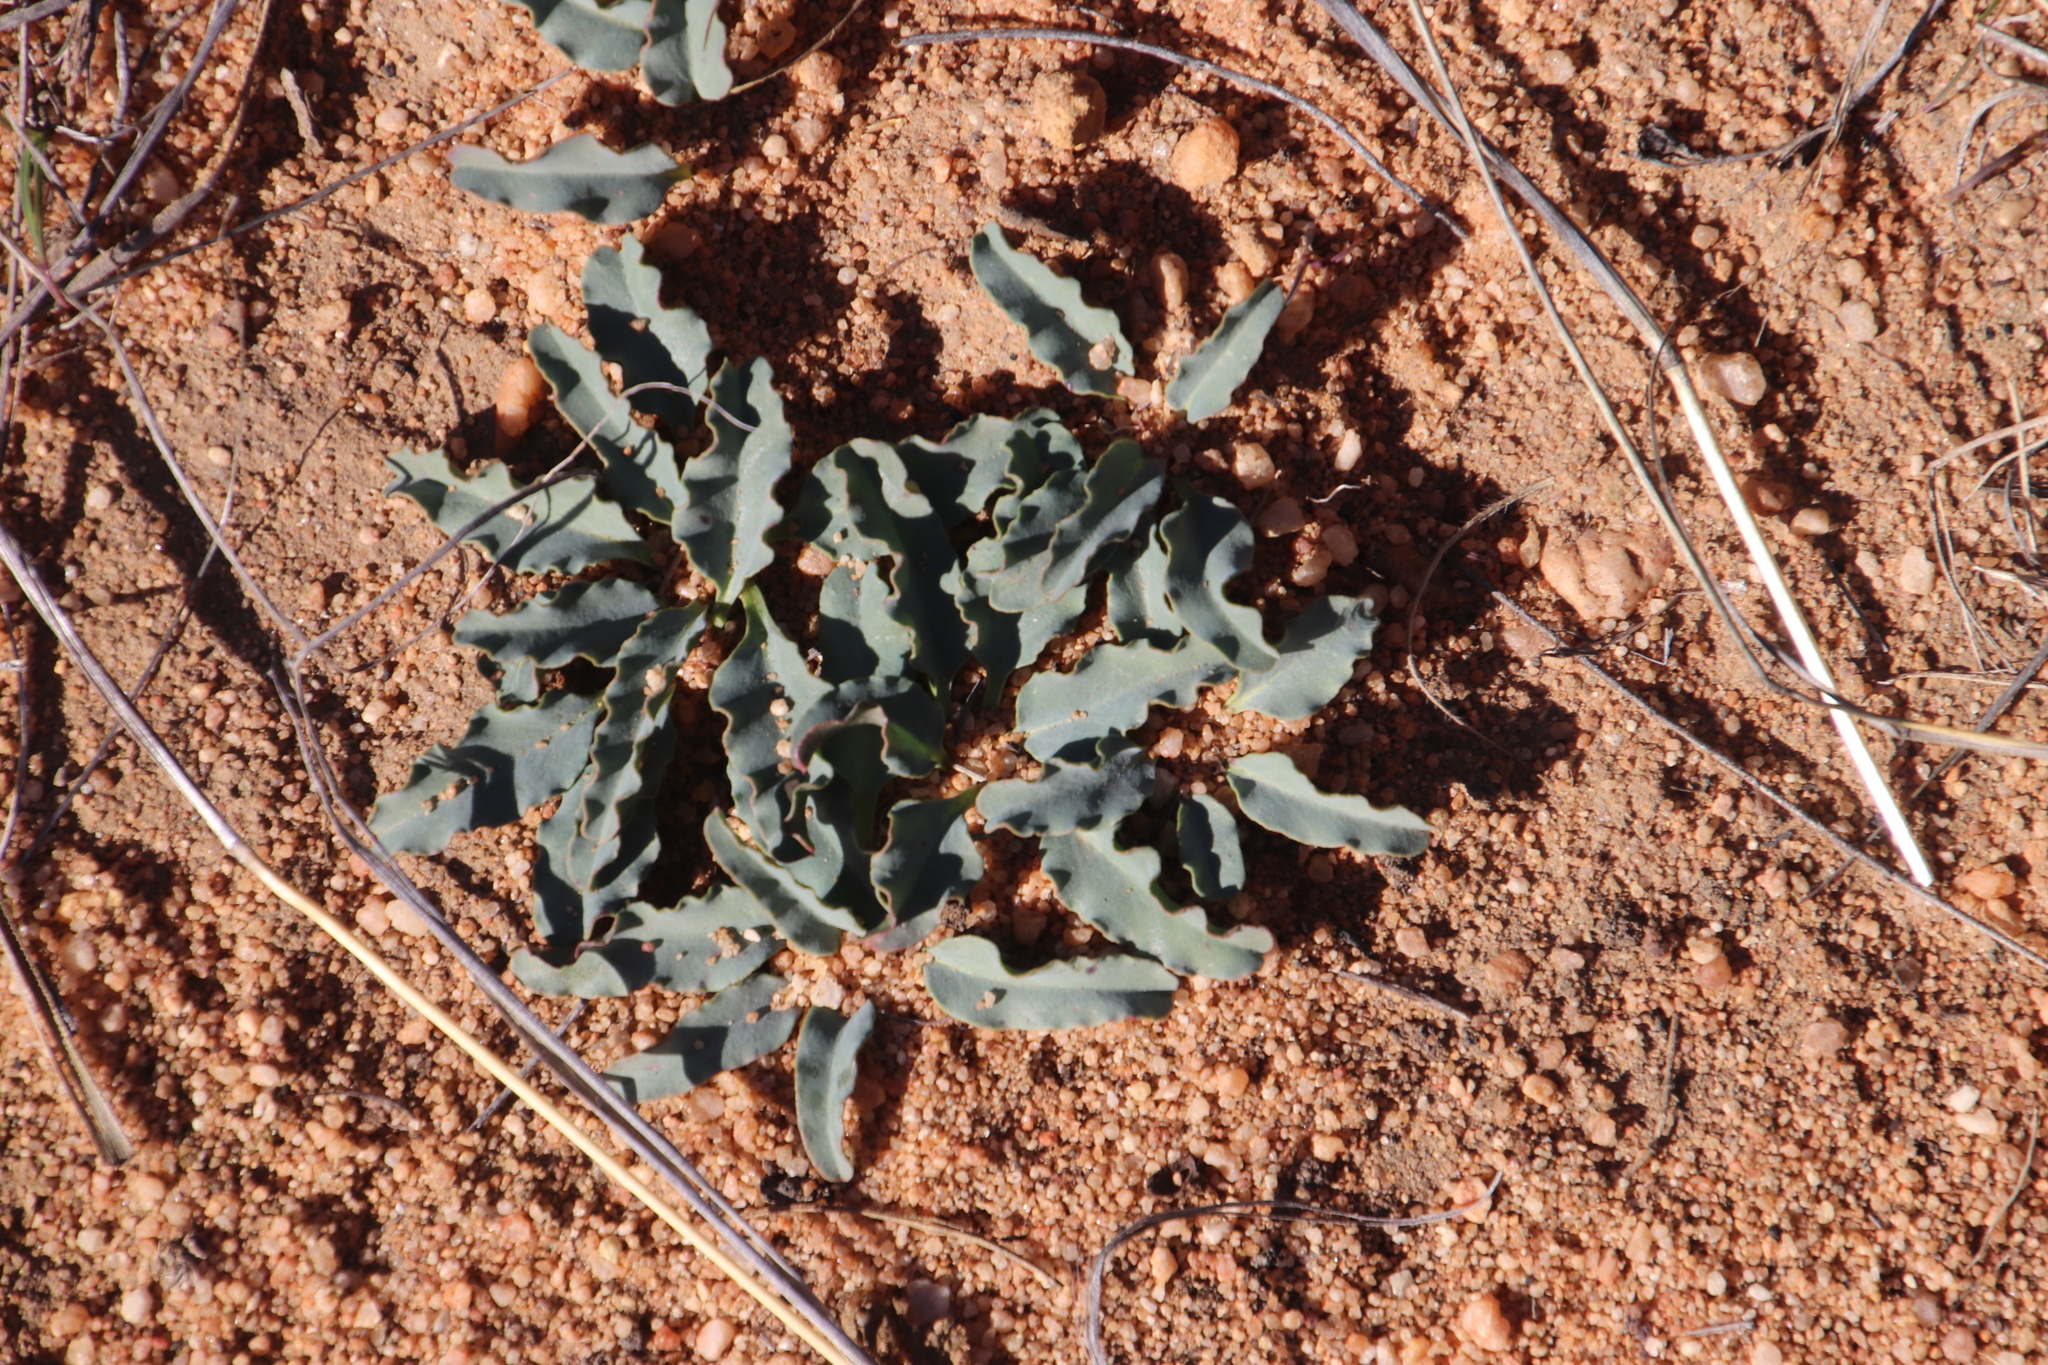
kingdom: Plantae
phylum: Tracheophyta
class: Magnoliopsida
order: Malpighiales
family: Euphorbiaceae
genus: Euphorbia
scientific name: Euphorbia tuberosa
